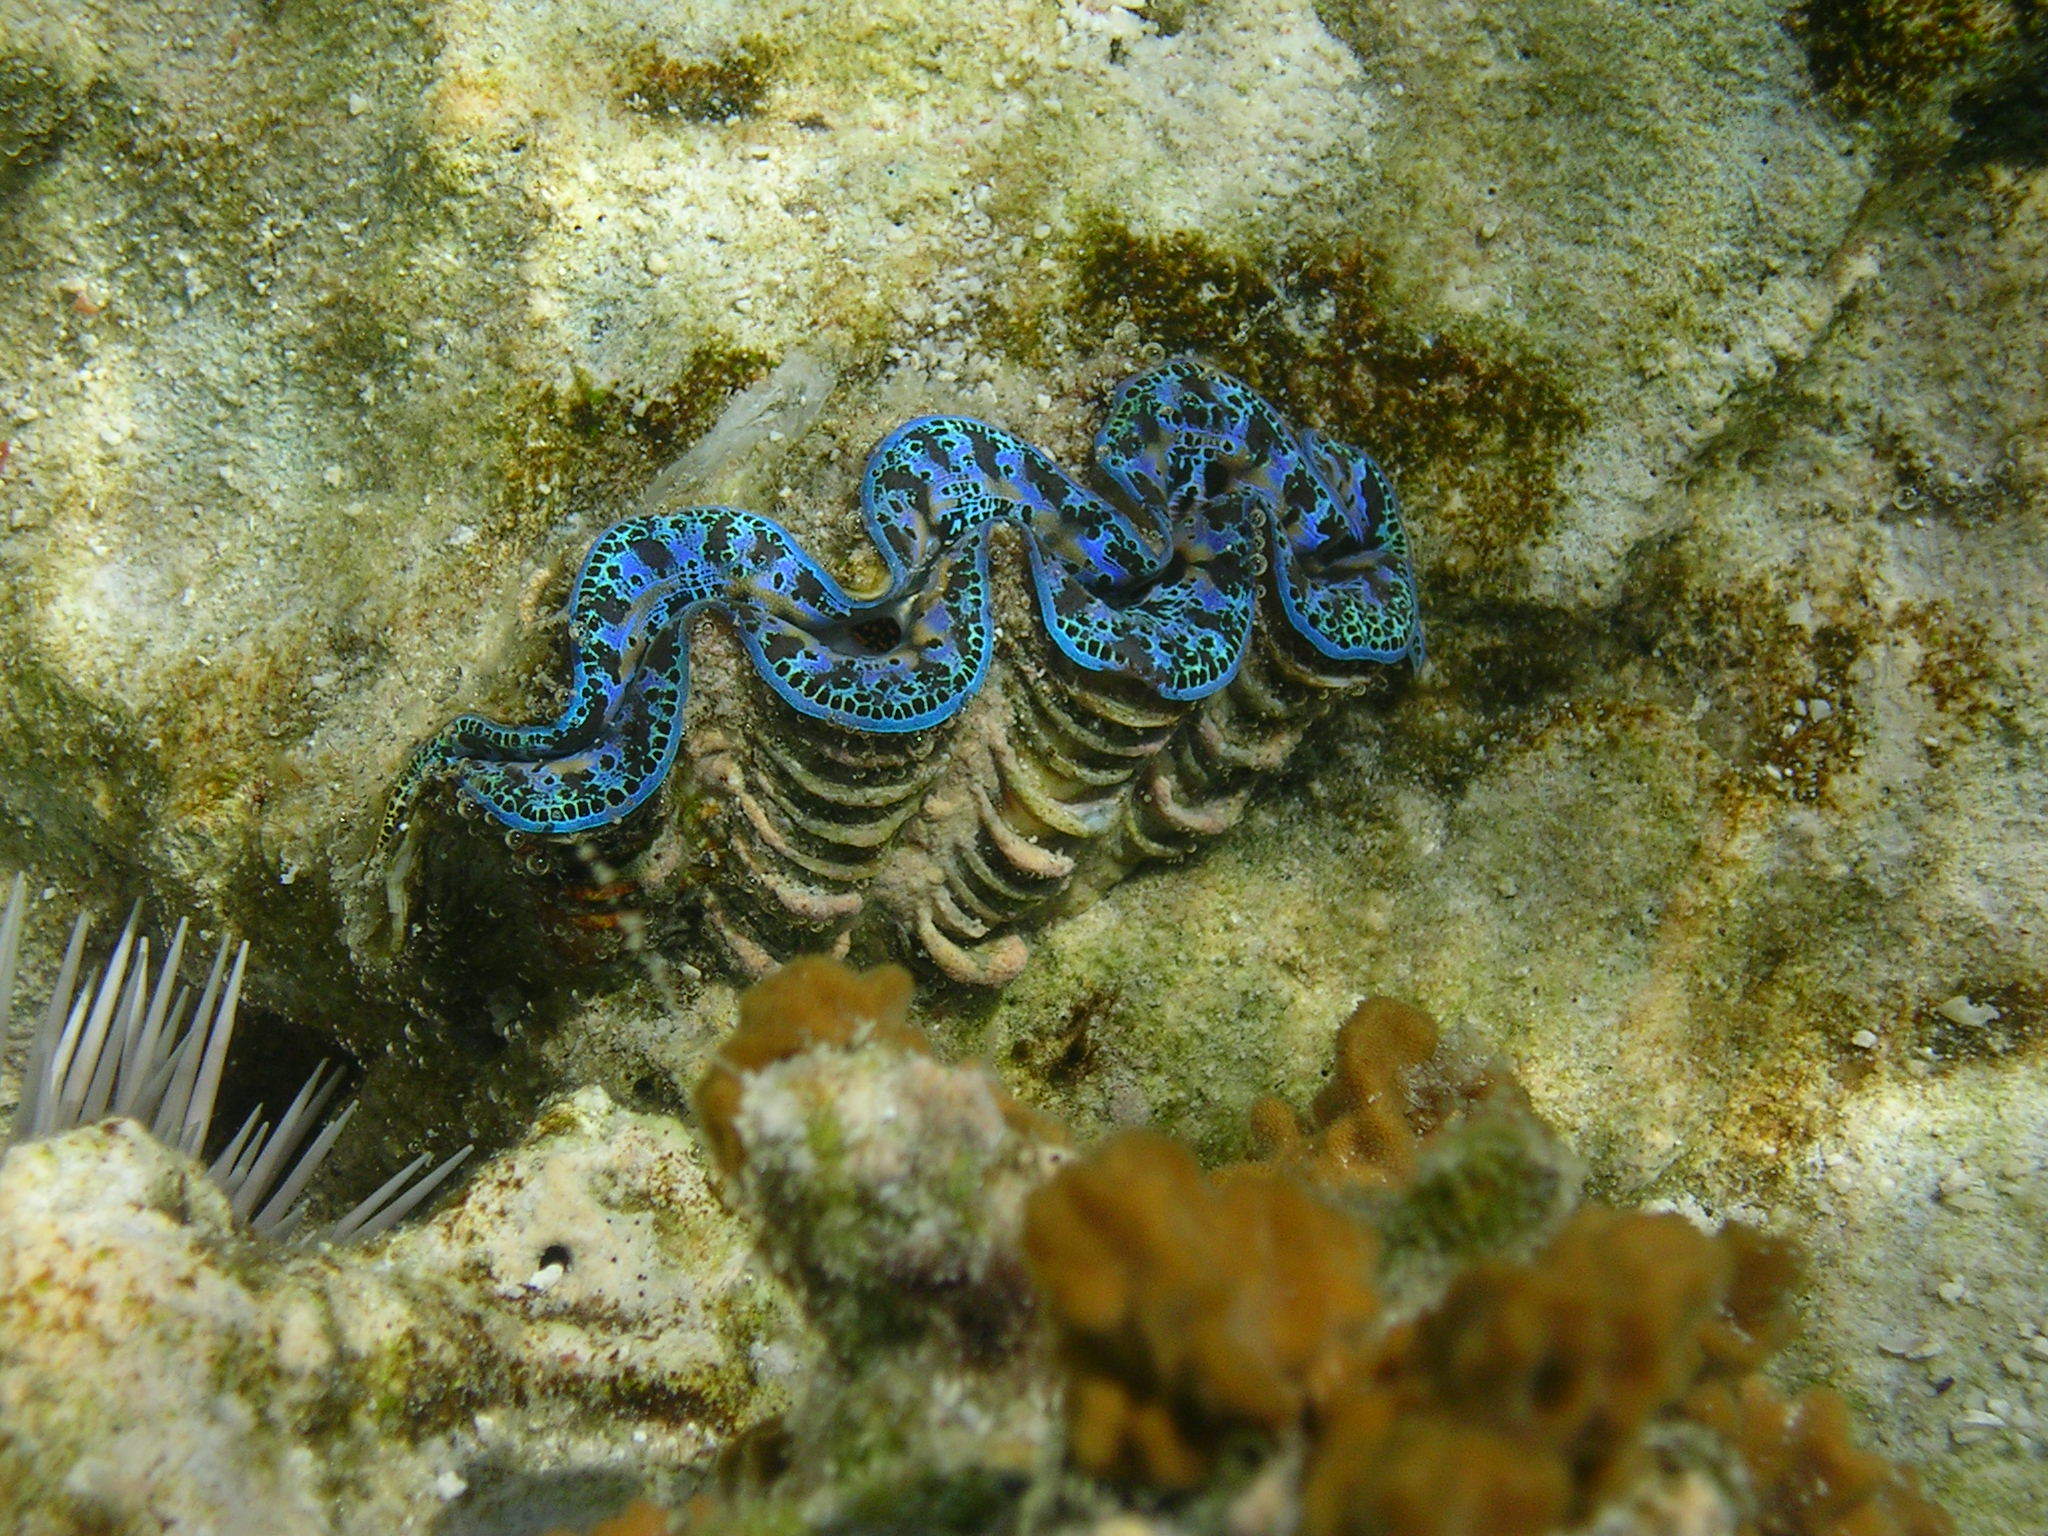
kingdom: Animalia
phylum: Mollusca
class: Bivalvia
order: Cardiida
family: Cardiidae
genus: Tridacna
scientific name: Tridacna maxima
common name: Small giant clam
